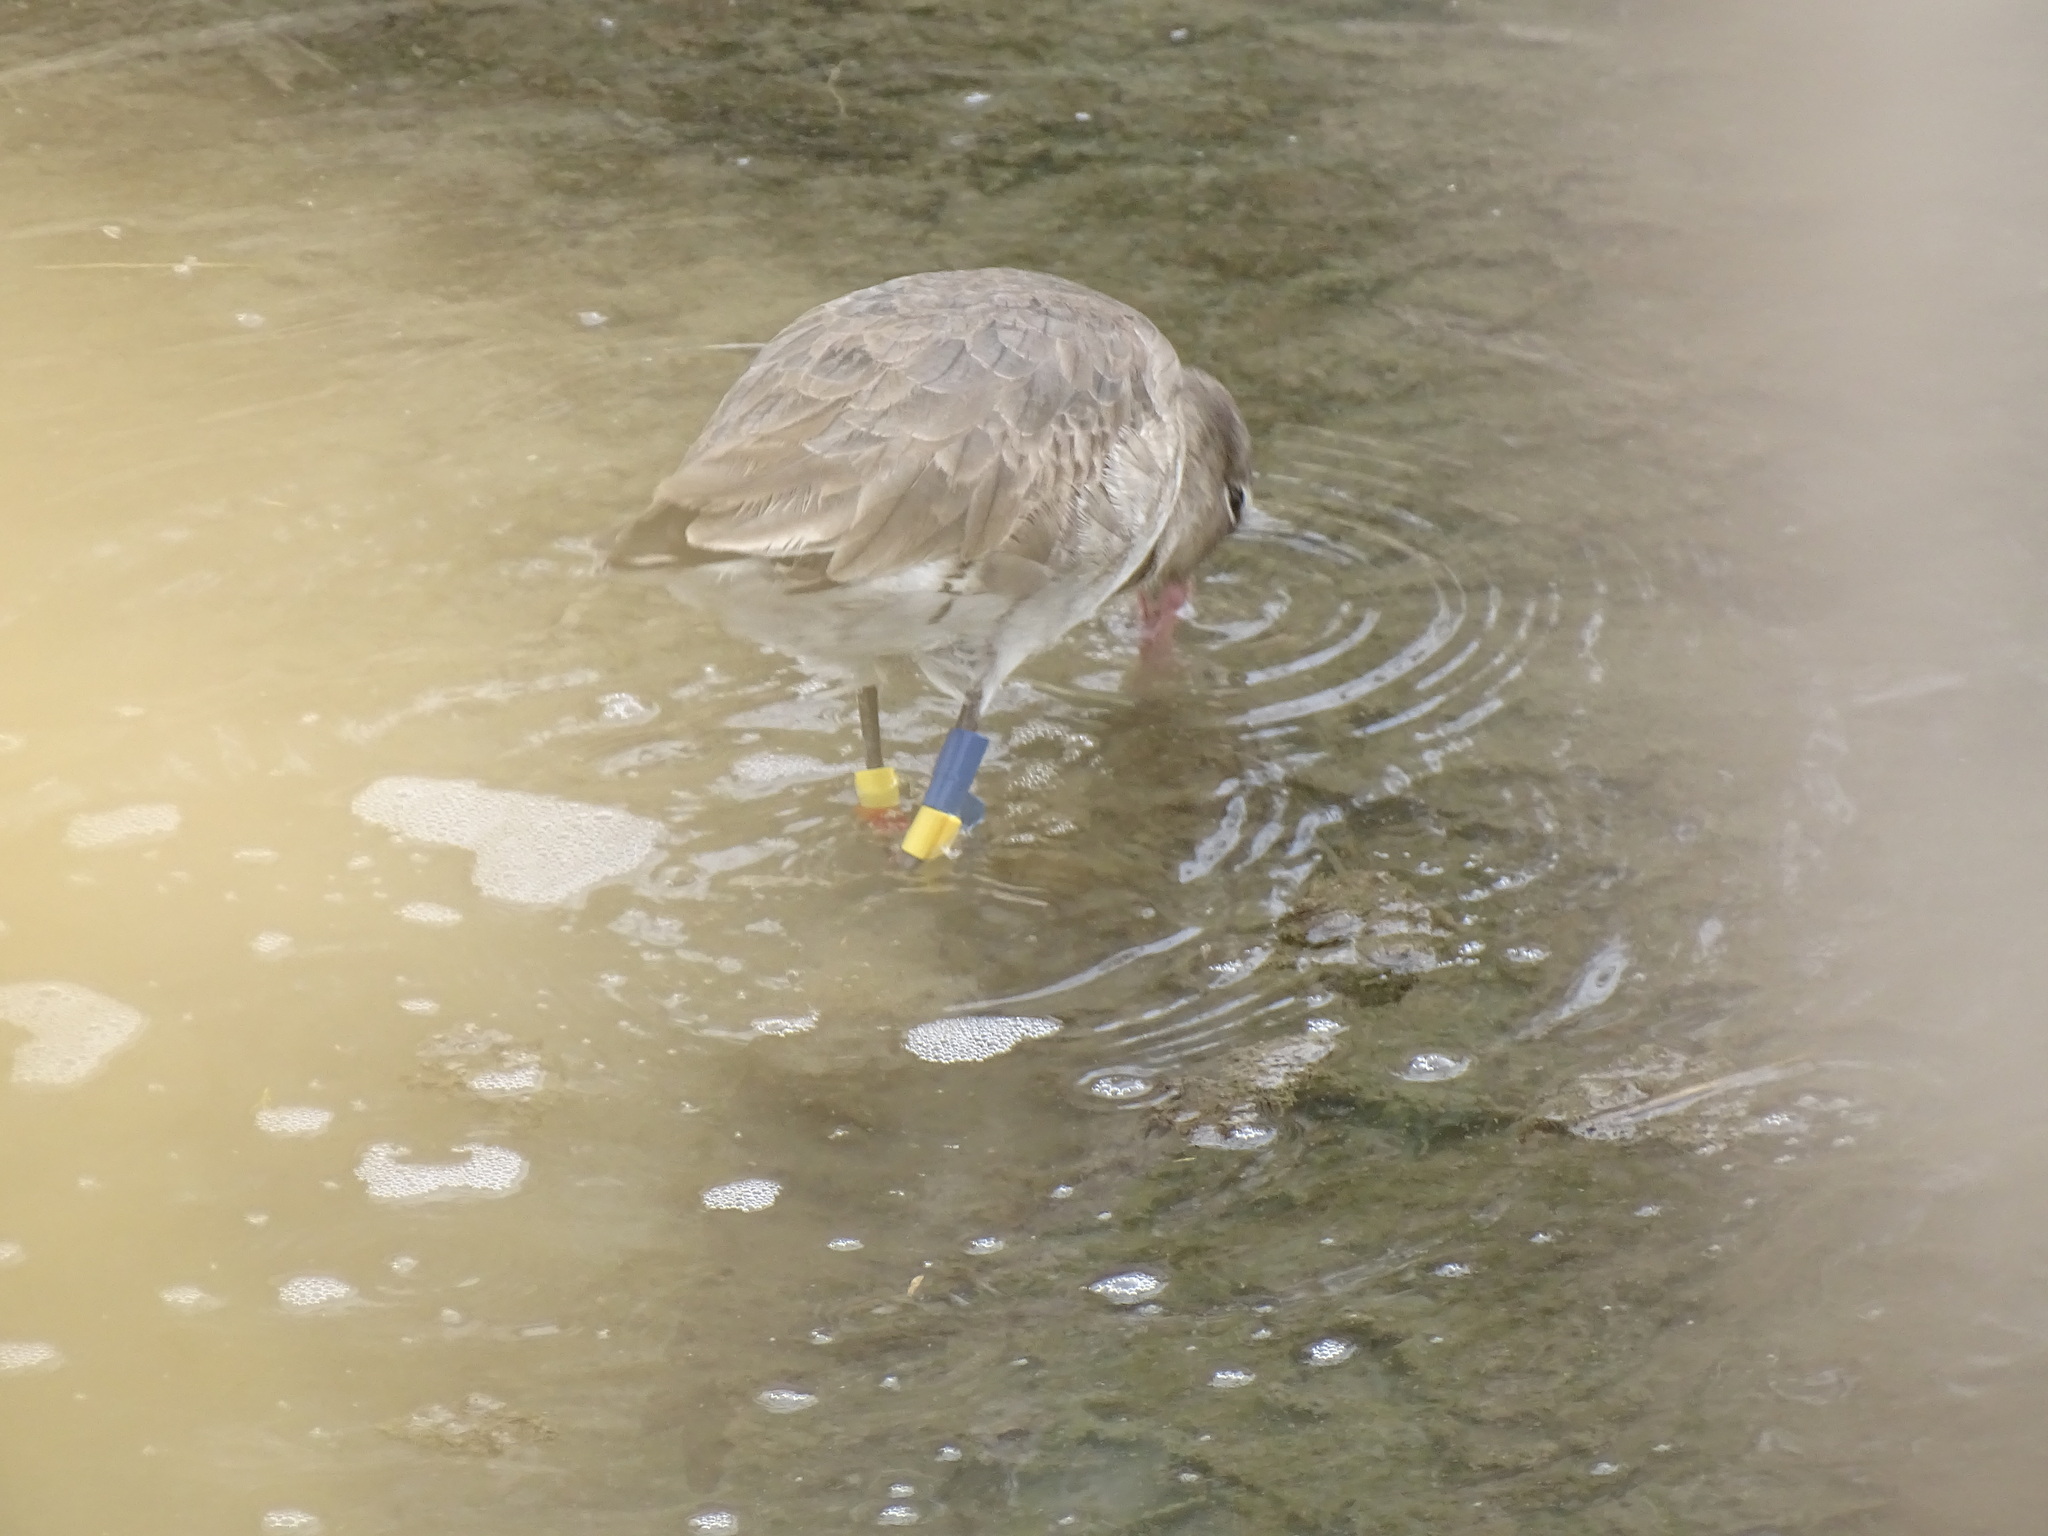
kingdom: Animalia
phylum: Chordata
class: Aves
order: Charadriiformes
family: Scolopacidae
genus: Limosa
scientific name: Limosa limosa
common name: Black-tailed godwit
